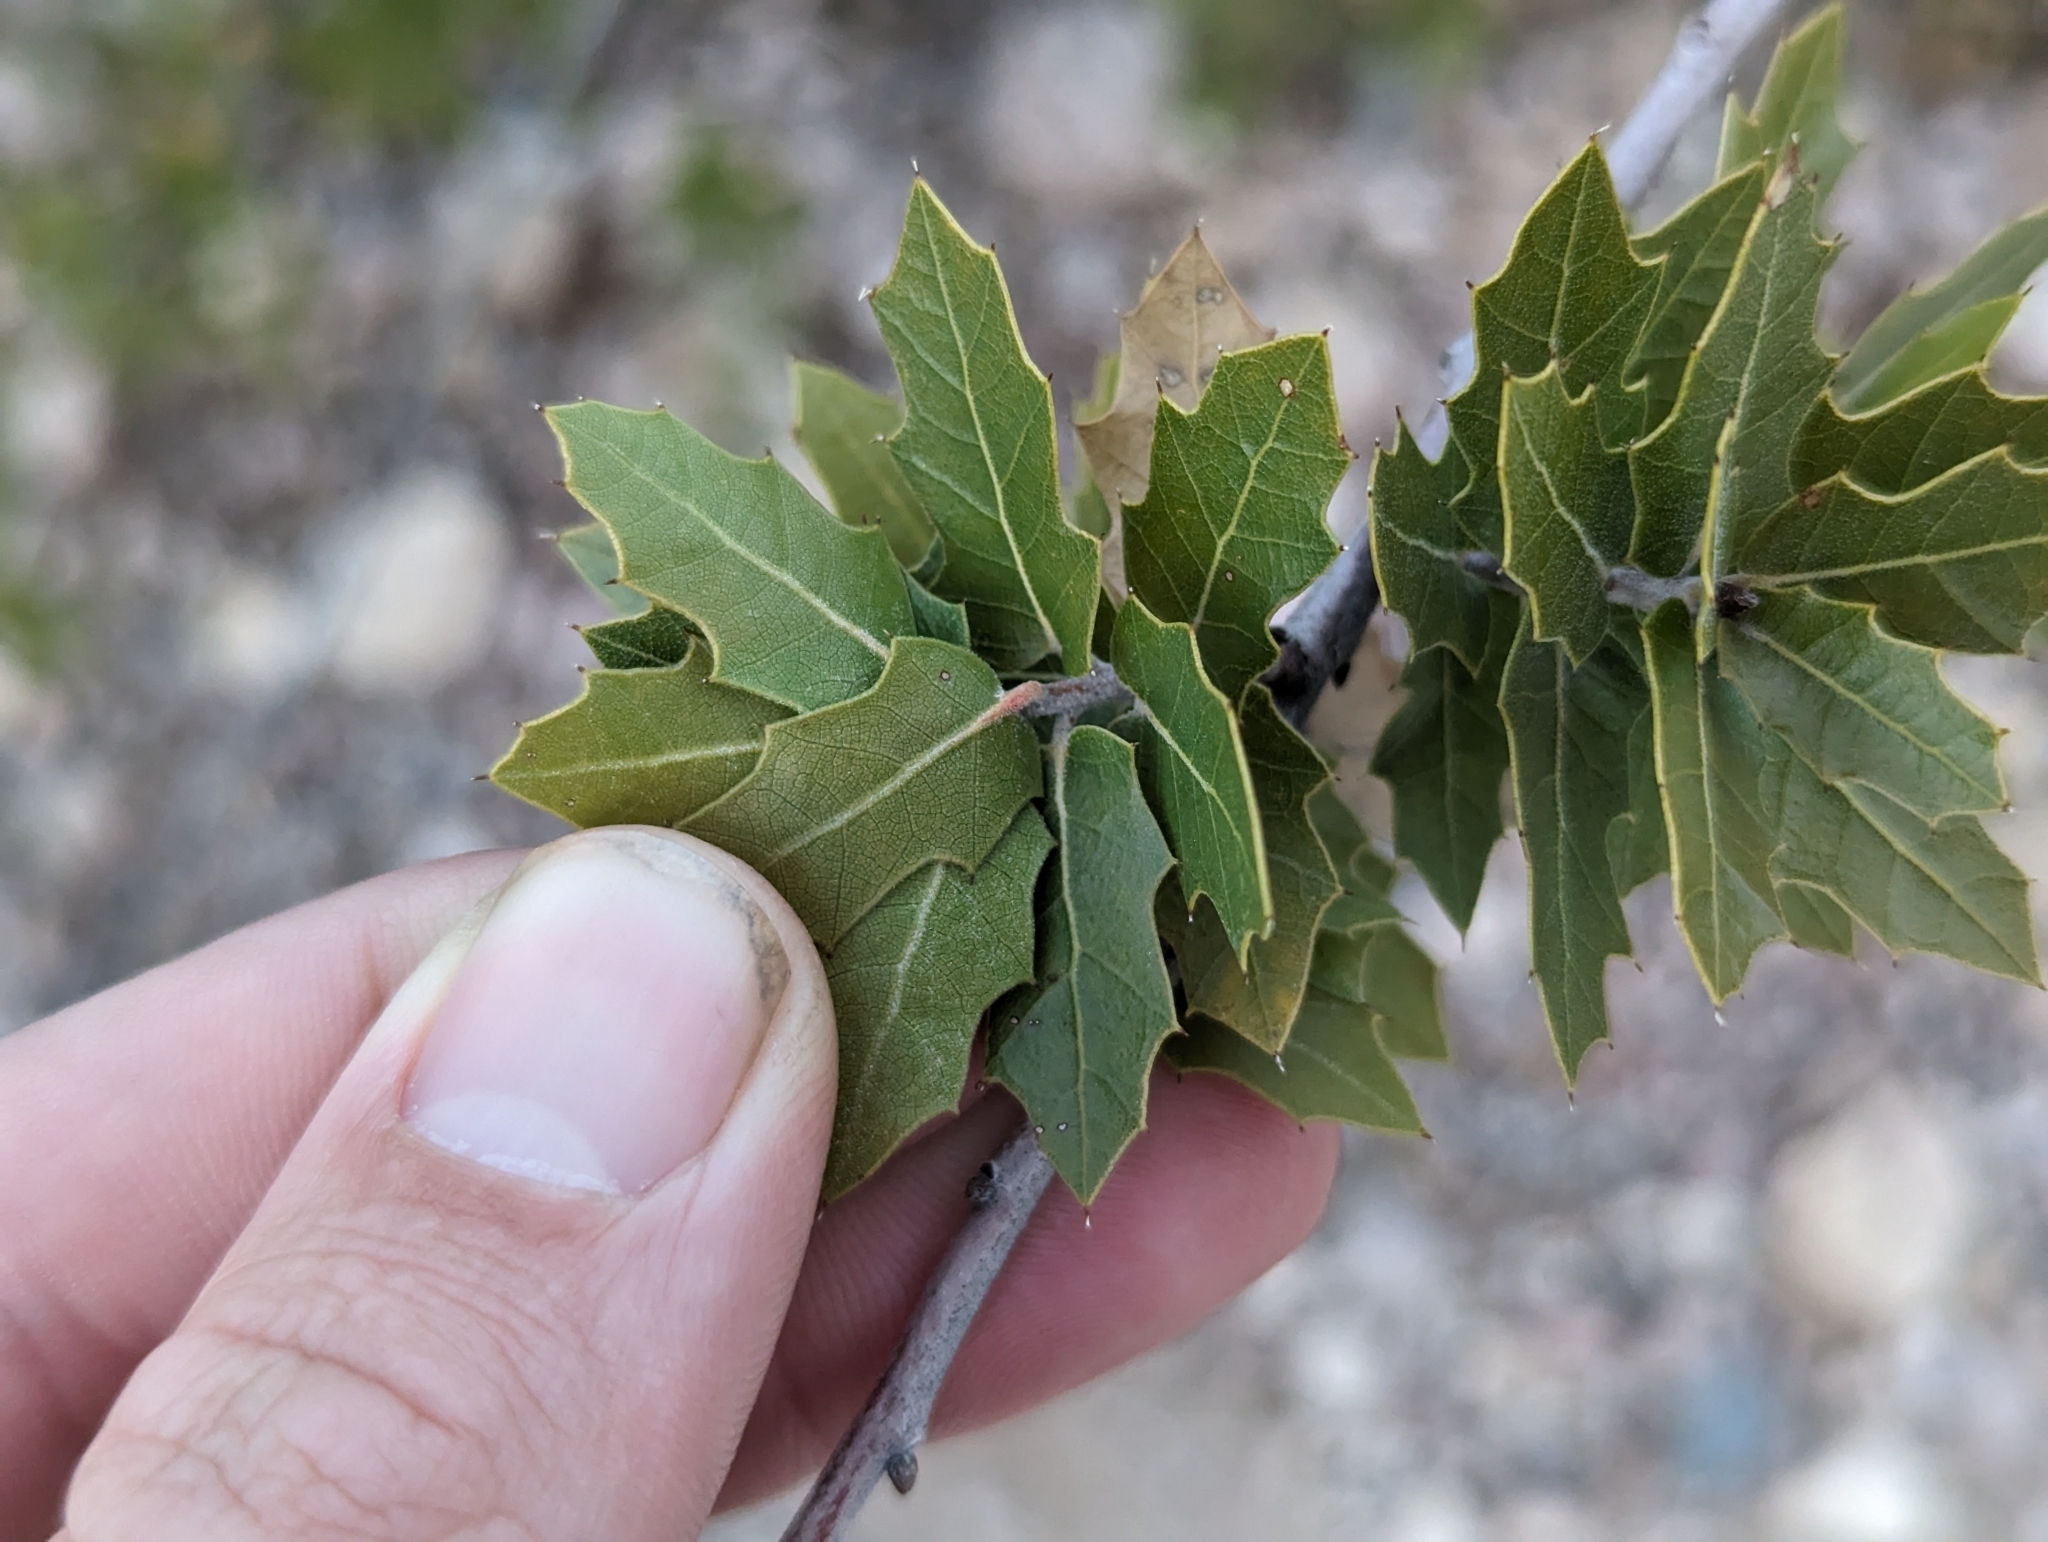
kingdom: Plantae
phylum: Tracheophyta
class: Magnoliopsida
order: Fagales
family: Fagaceae
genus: Quercus
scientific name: Quercus emoryi
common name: Emory oak
